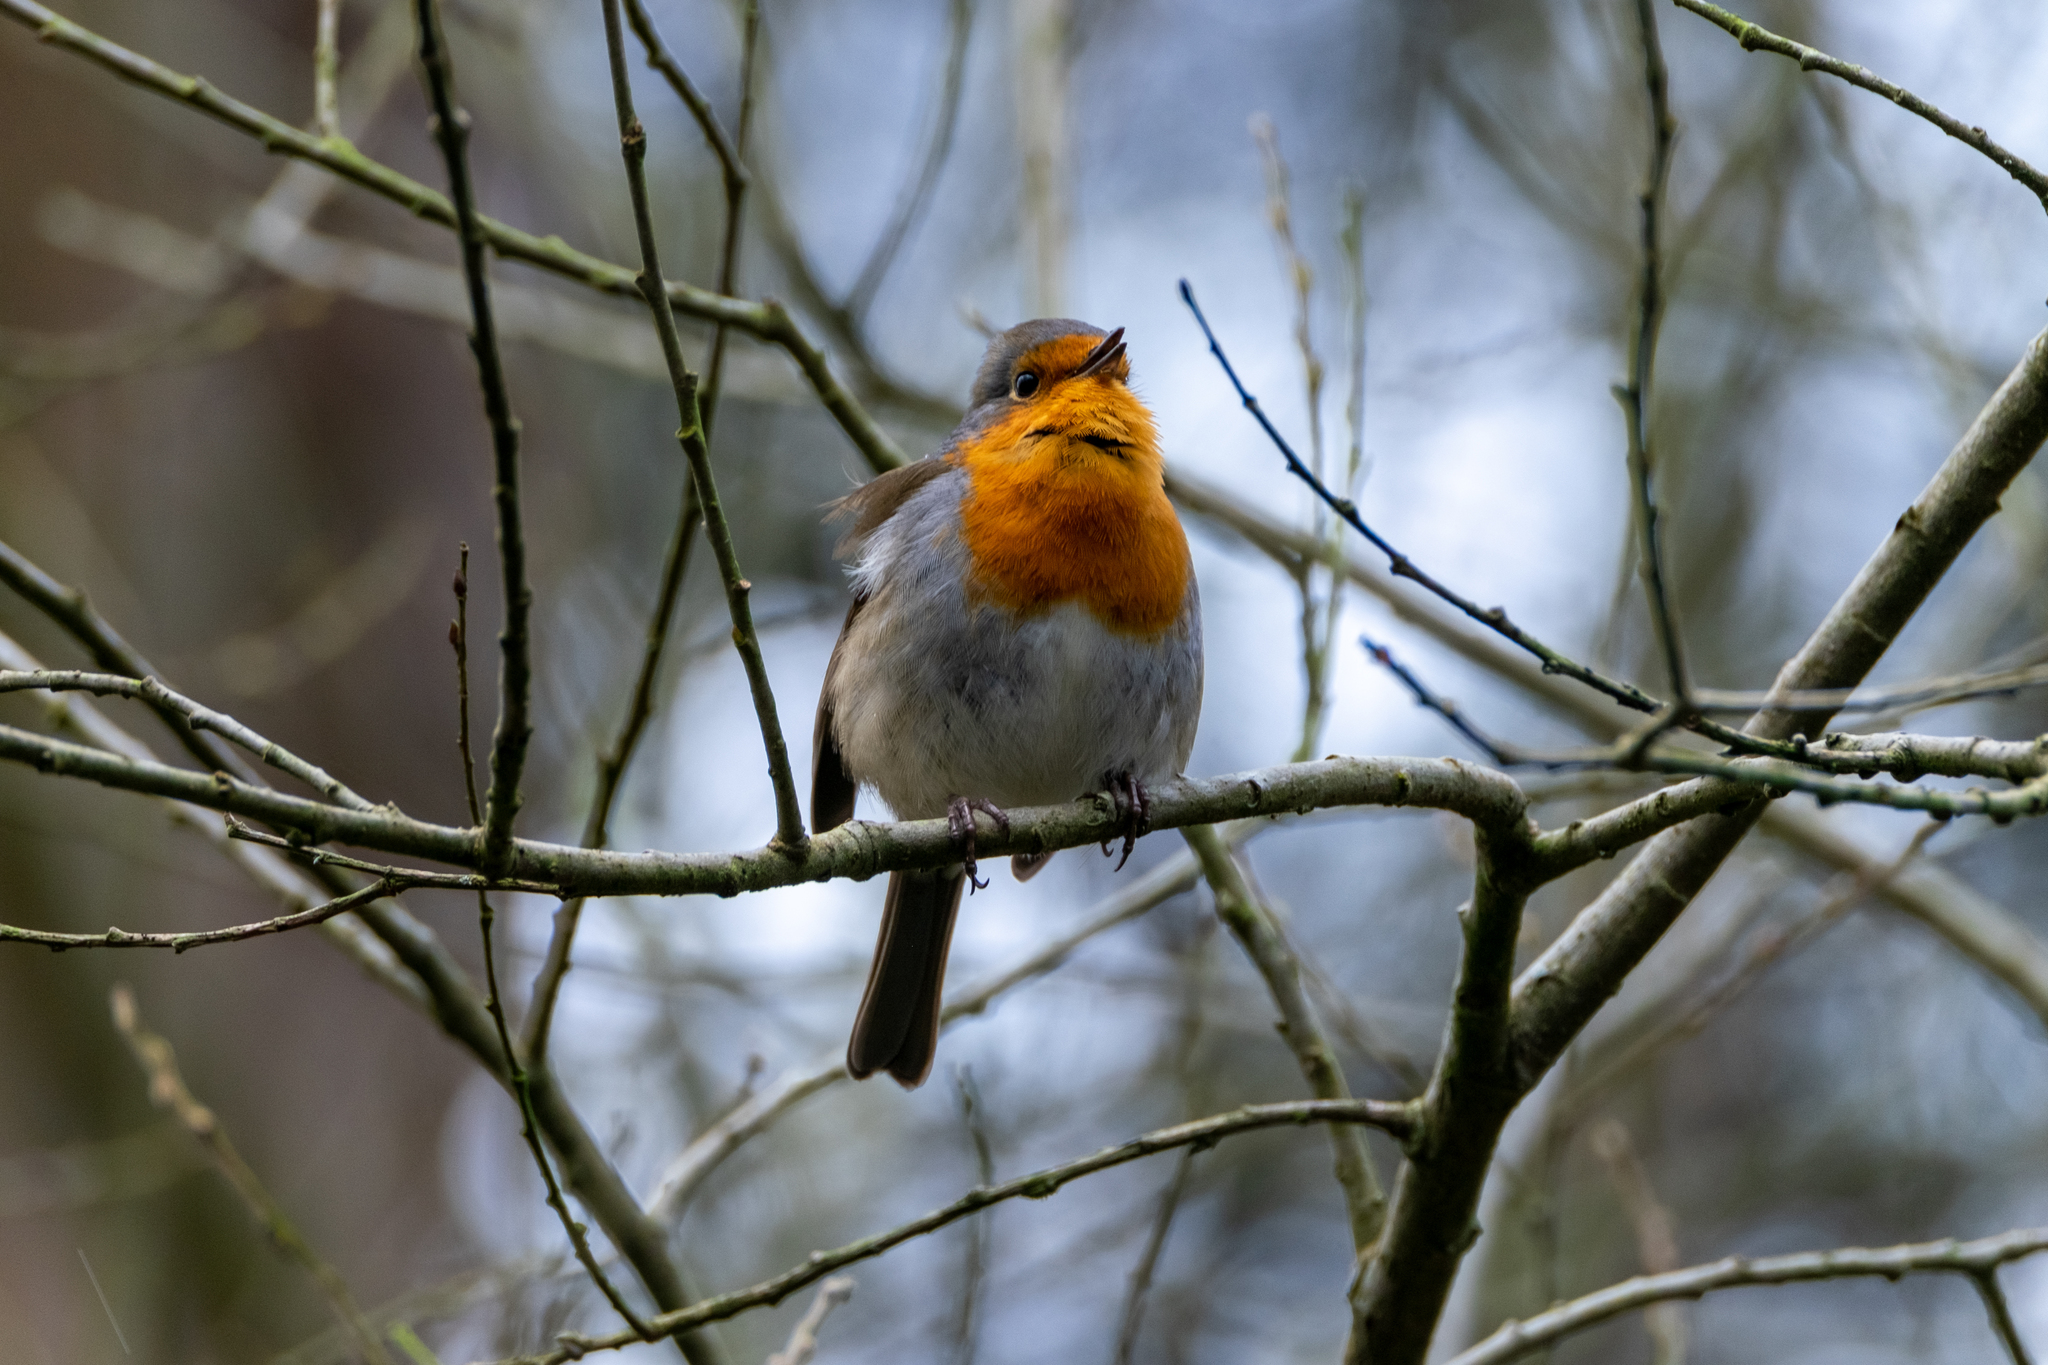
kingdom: Animalia
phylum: Chordata
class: Aves
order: Passeriformes
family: Muscicapidae
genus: Erithacus
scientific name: Erithacus rubecula
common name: European robin
